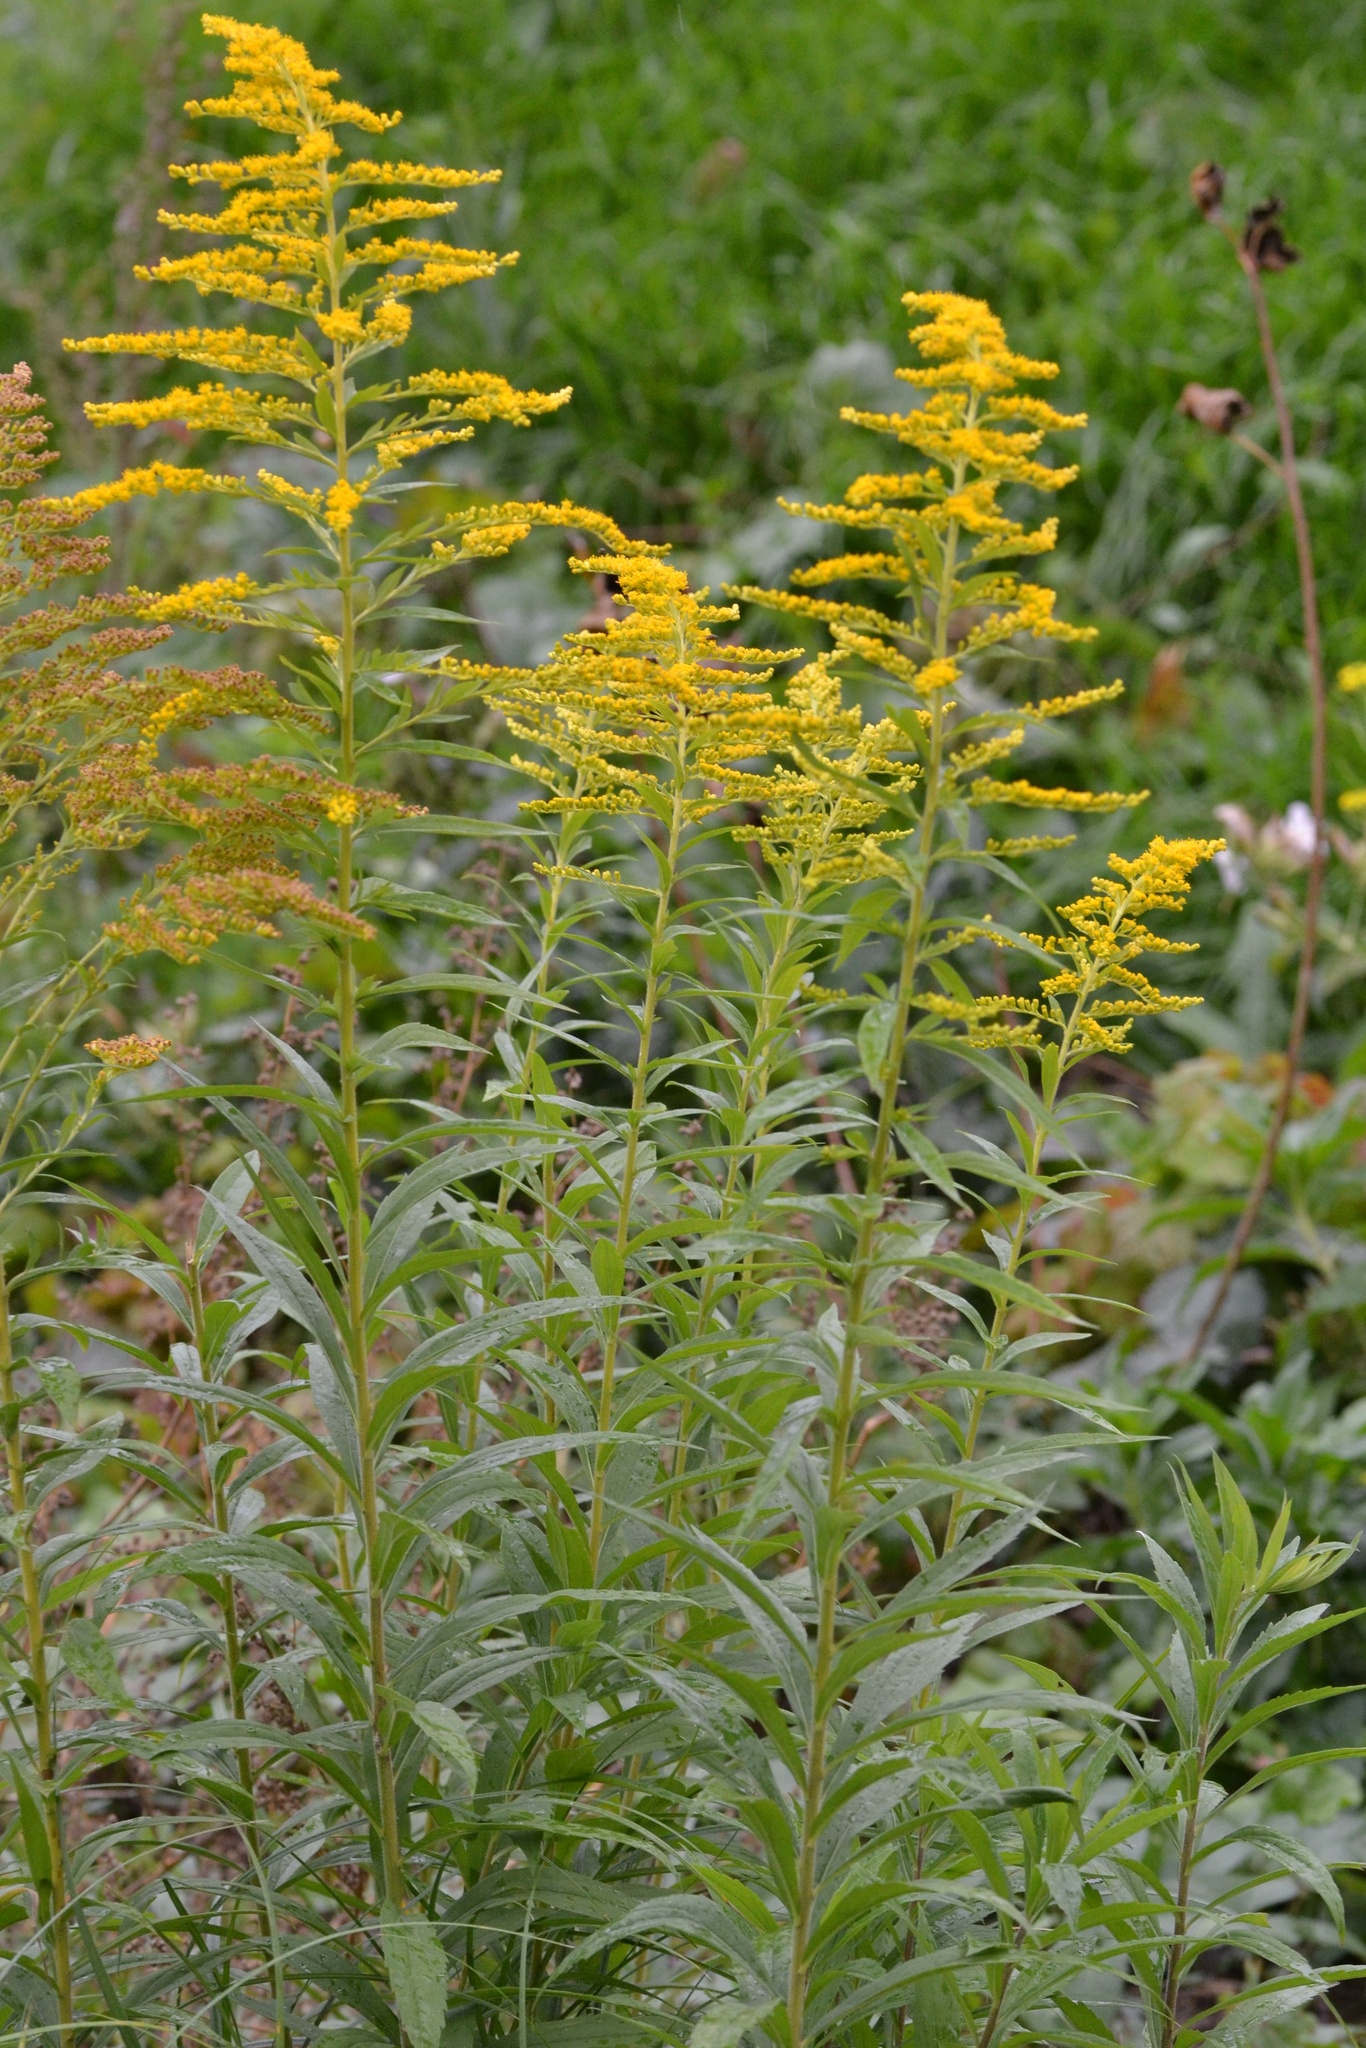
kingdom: Plantae
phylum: Tracheophyta
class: Magnoliopsida
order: Asterales
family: Asteraceae
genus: Solidago
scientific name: Solidago canadensis
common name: Canada goldenrod
